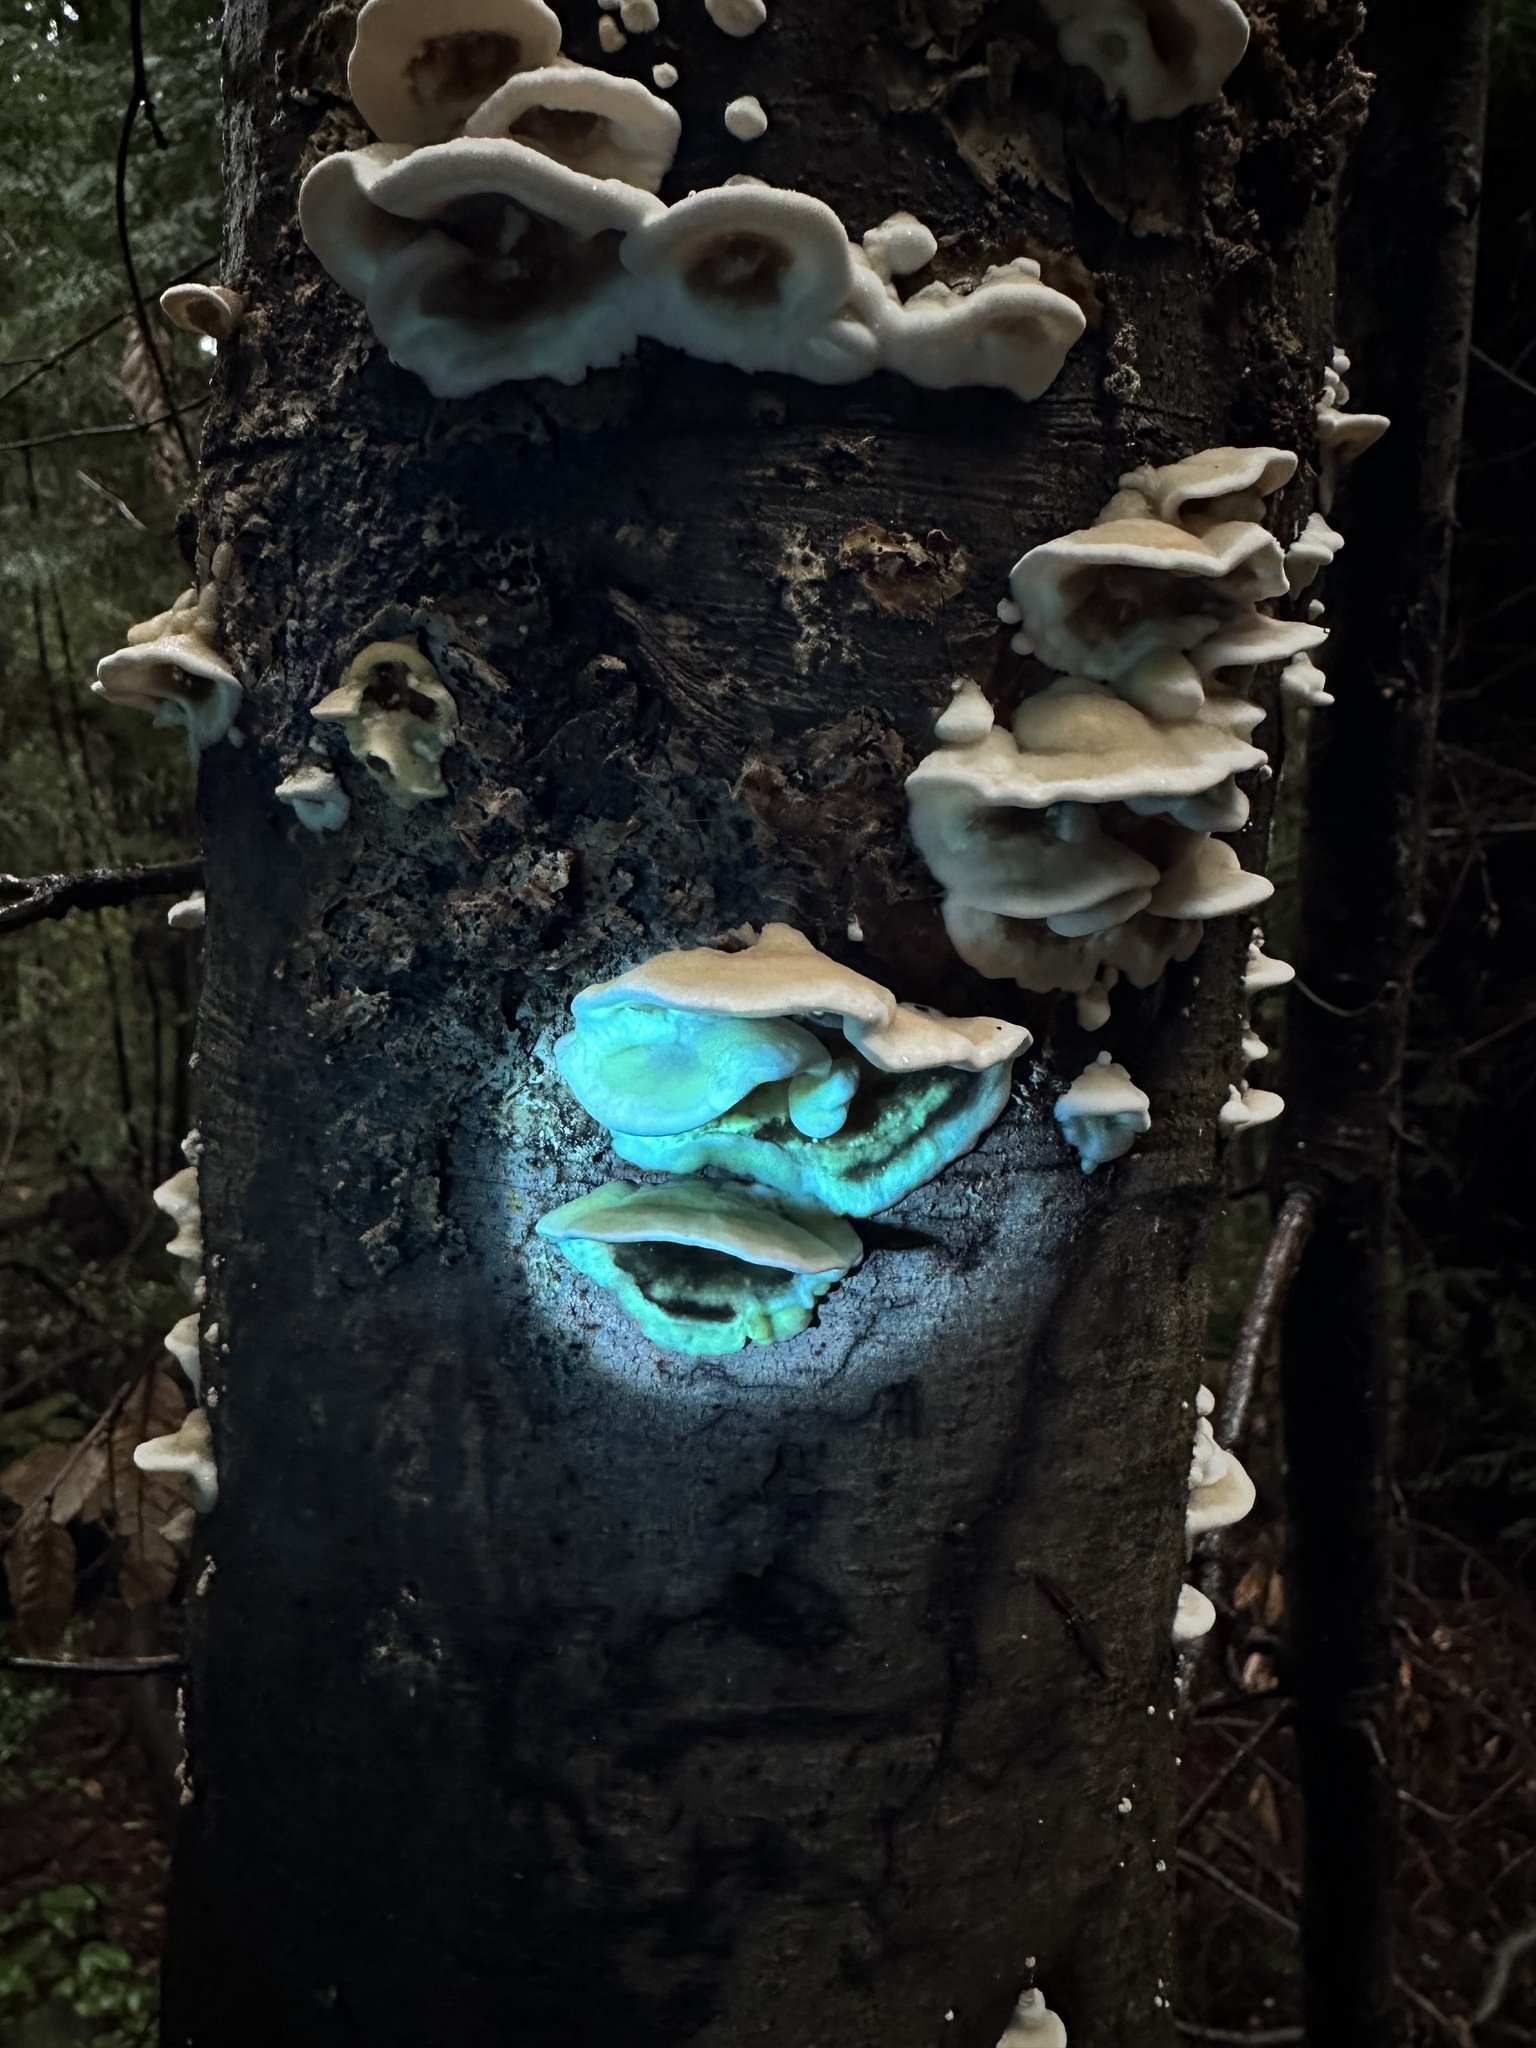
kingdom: Fungi
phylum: Basidiomycota
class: Agaricomycetes
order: Polyporales
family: Phanerochaetaceae
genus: Bjerkandera
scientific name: Bjerkandera adusta
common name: Smoky bracket
